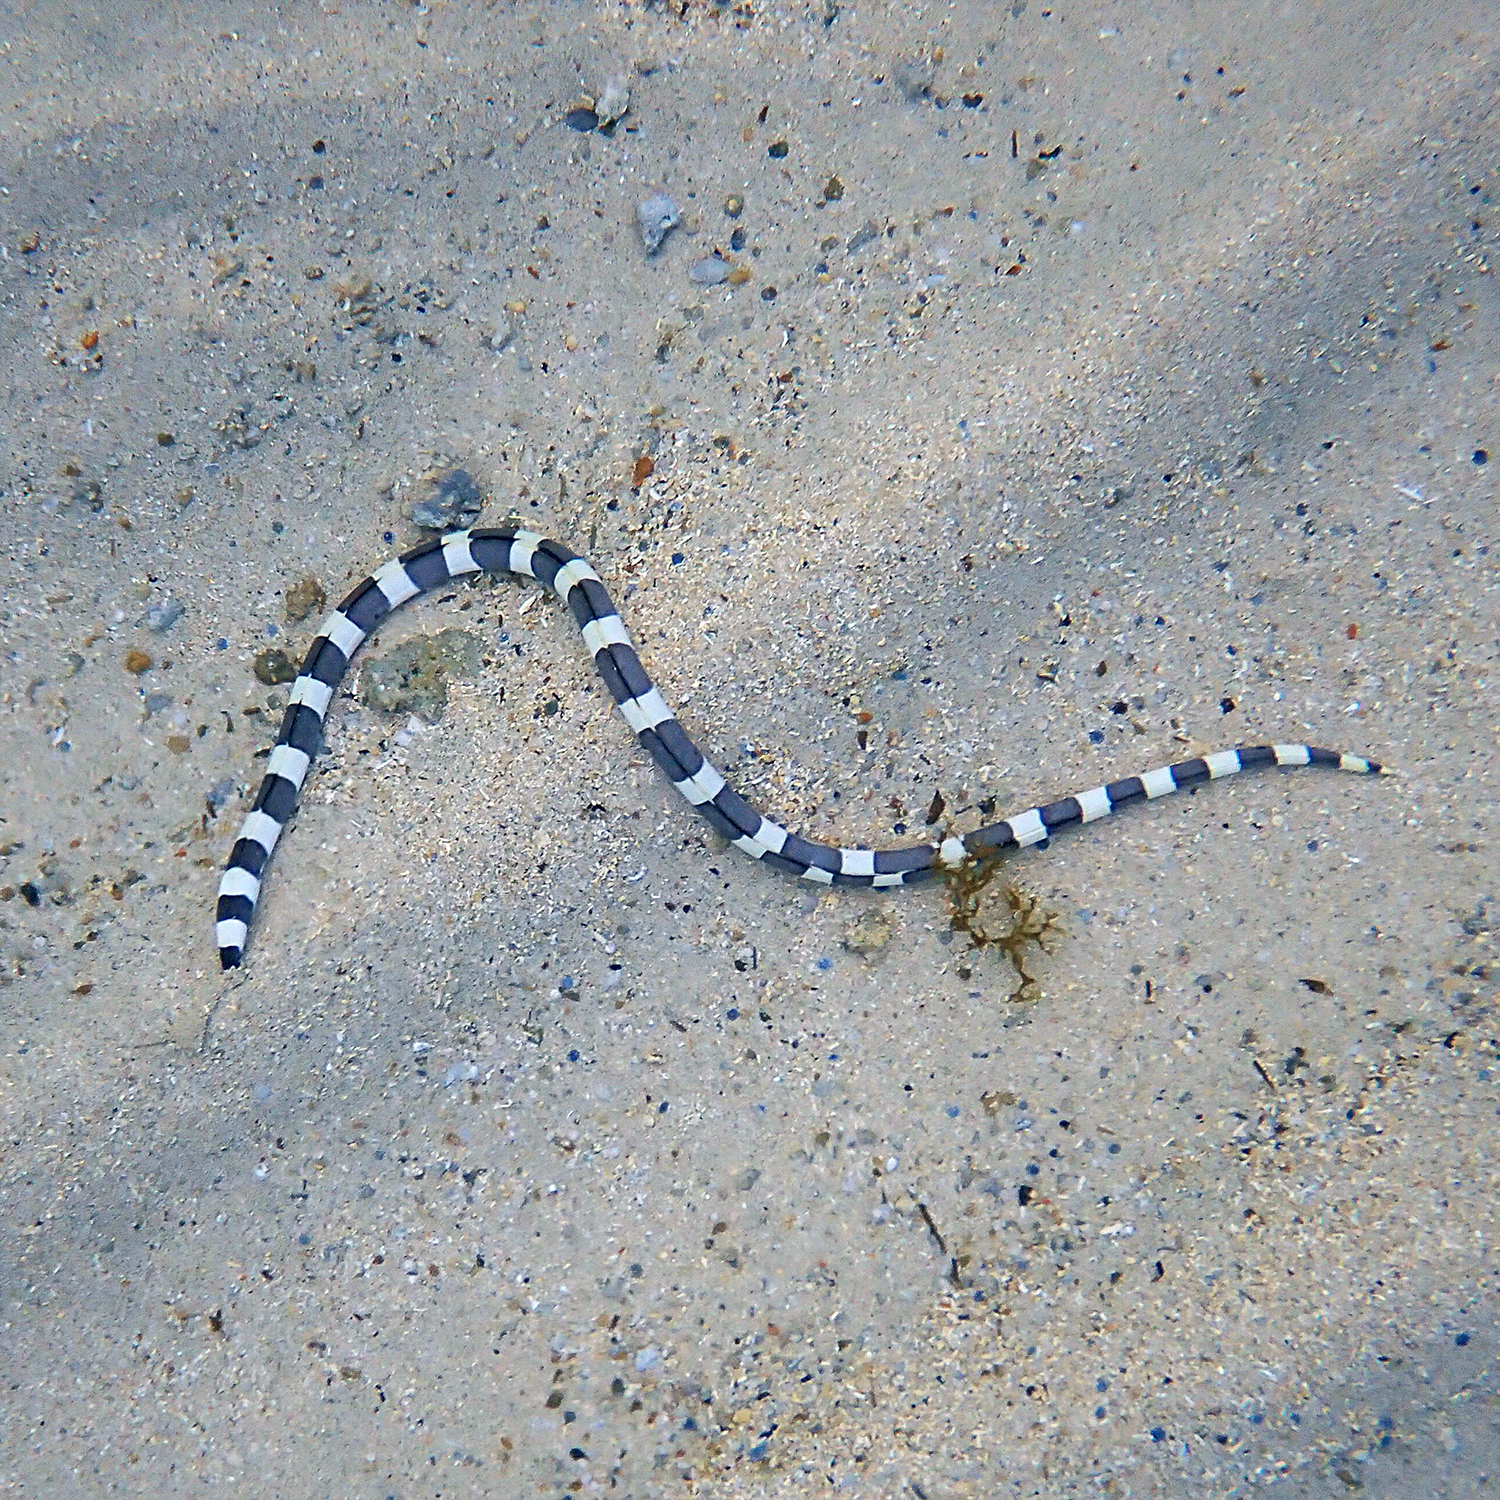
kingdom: Animalia
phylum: Chordata
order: Anguilliformes
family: Ophichthidae
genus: Leiuranus
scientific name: Leiuranus semicinctus
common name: Saddled snake eel
